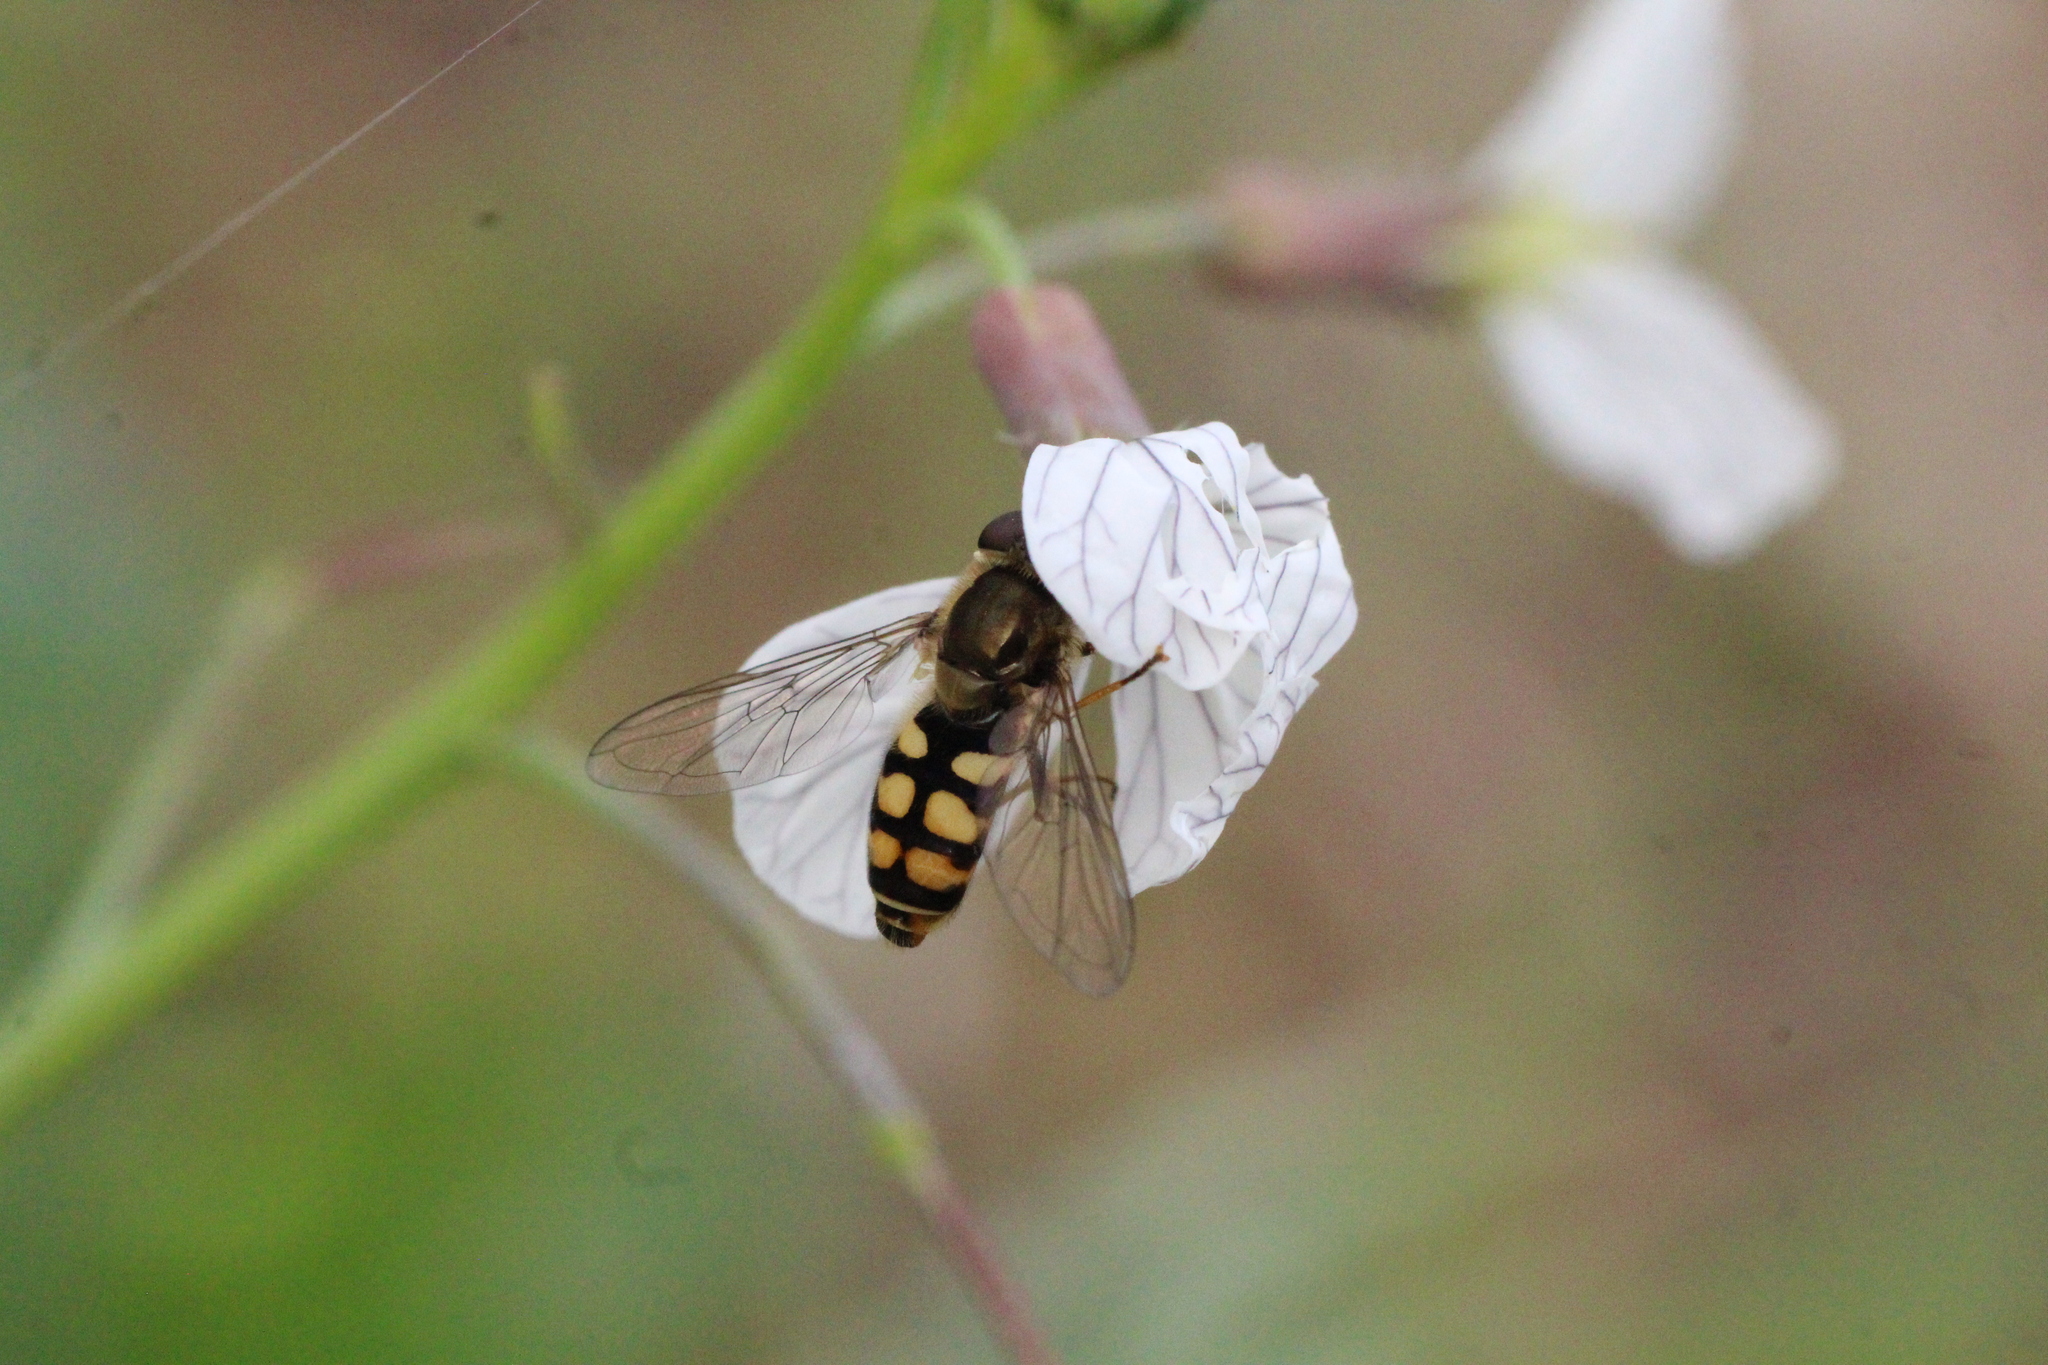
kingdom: Animalia
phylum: Arthropoda
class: Insecta
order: Diptera
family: Syrphidae
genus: Eupeodes
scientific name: Eupeodes corollae
